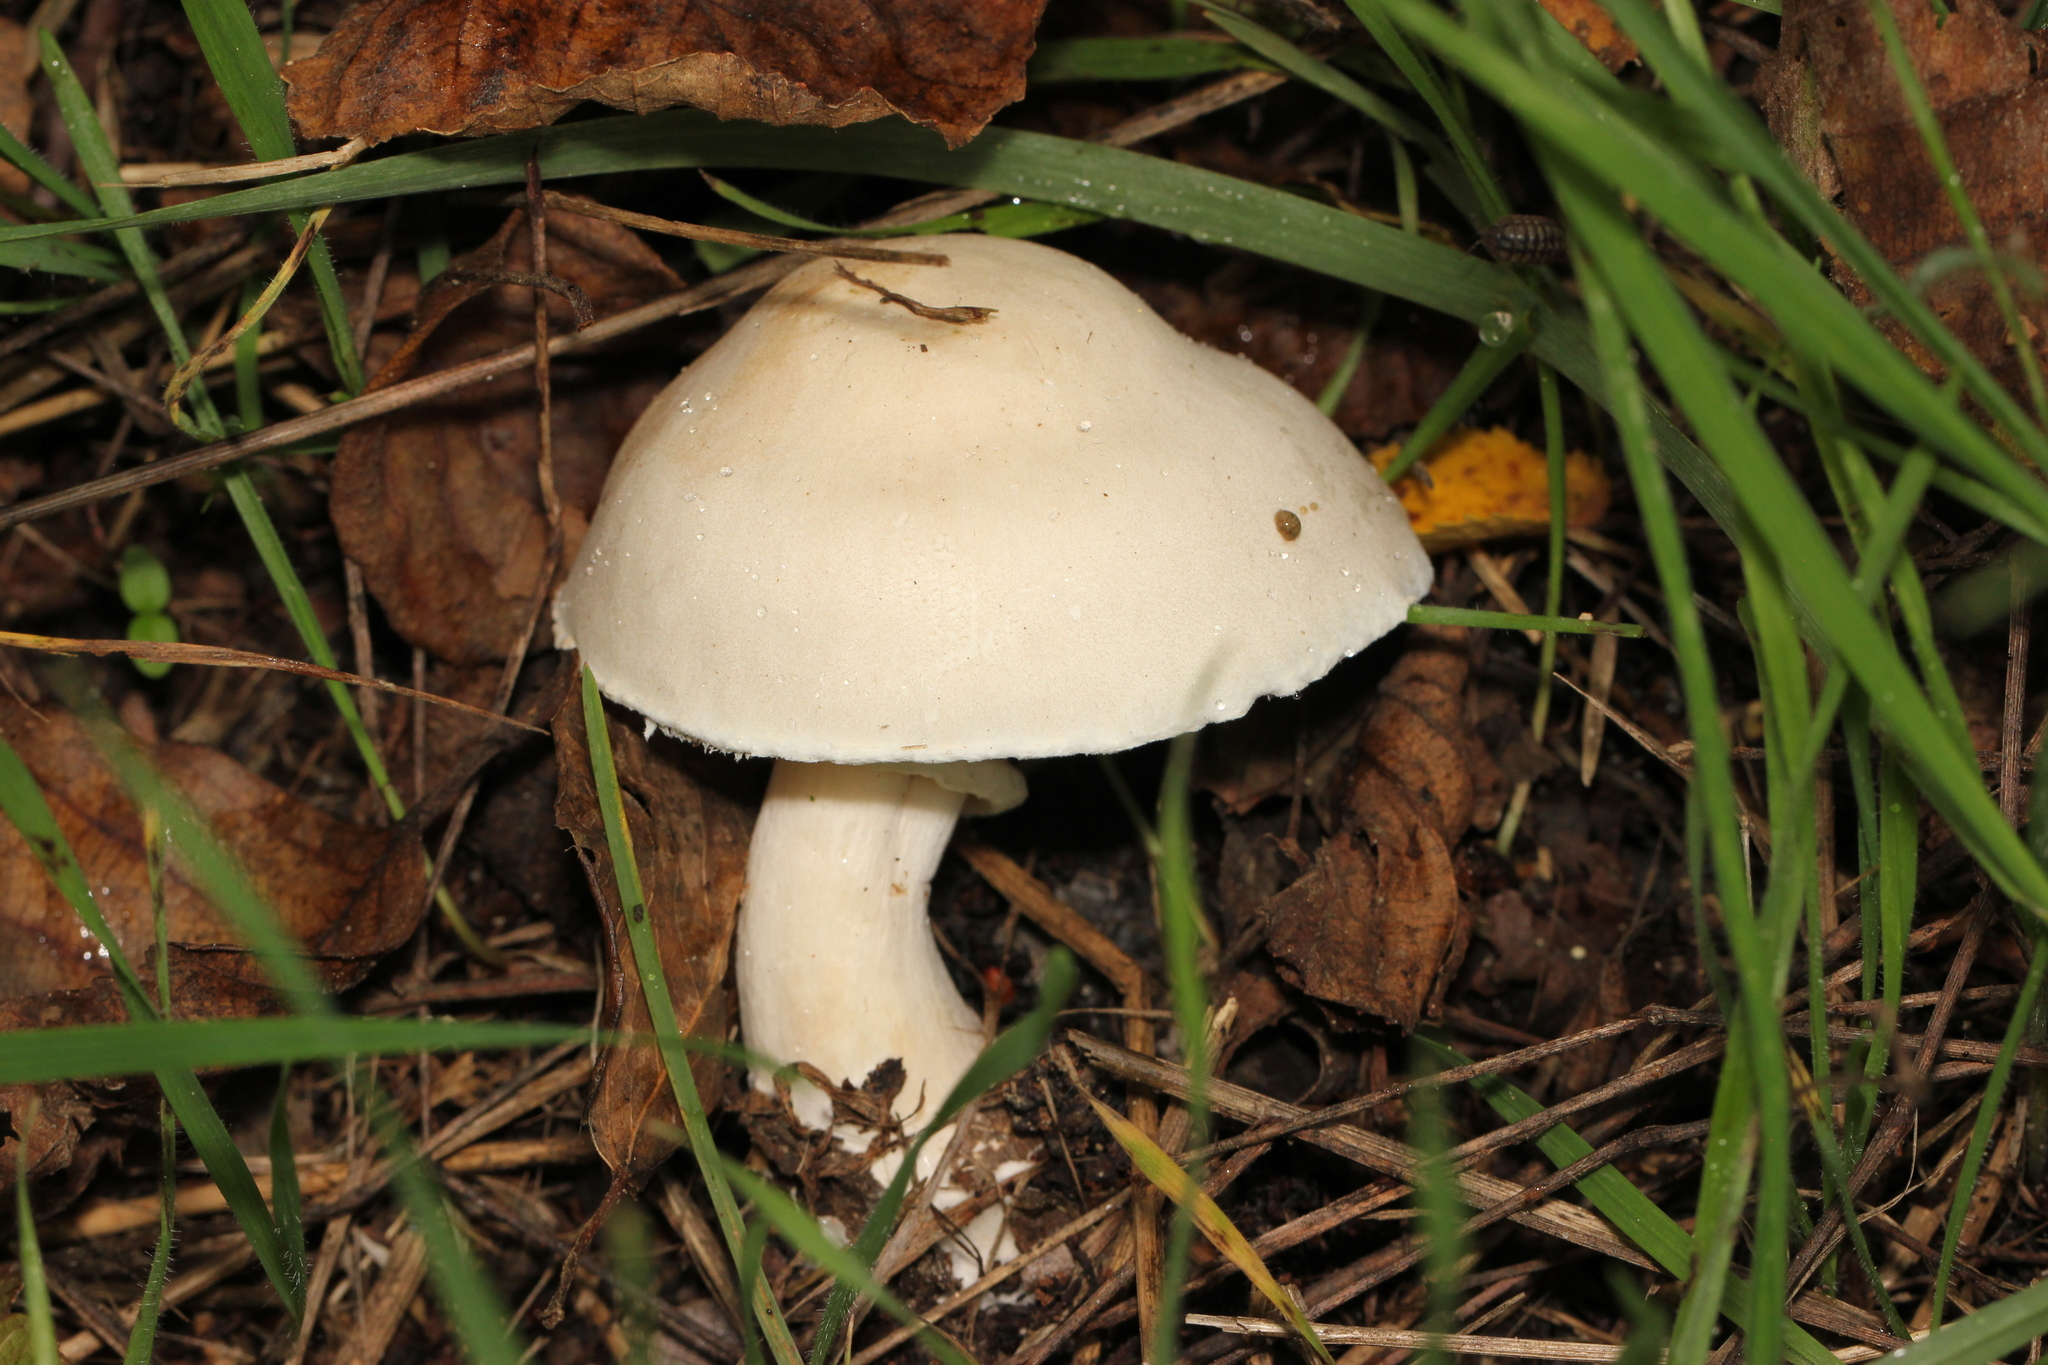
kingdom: Fungi
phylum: Basidiomycota
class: Agaricomycetes
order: Agaricales
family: Agaricaceae
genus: Leucoagaricus
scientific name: Leucoagaricus leucothites
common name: White dapperling
